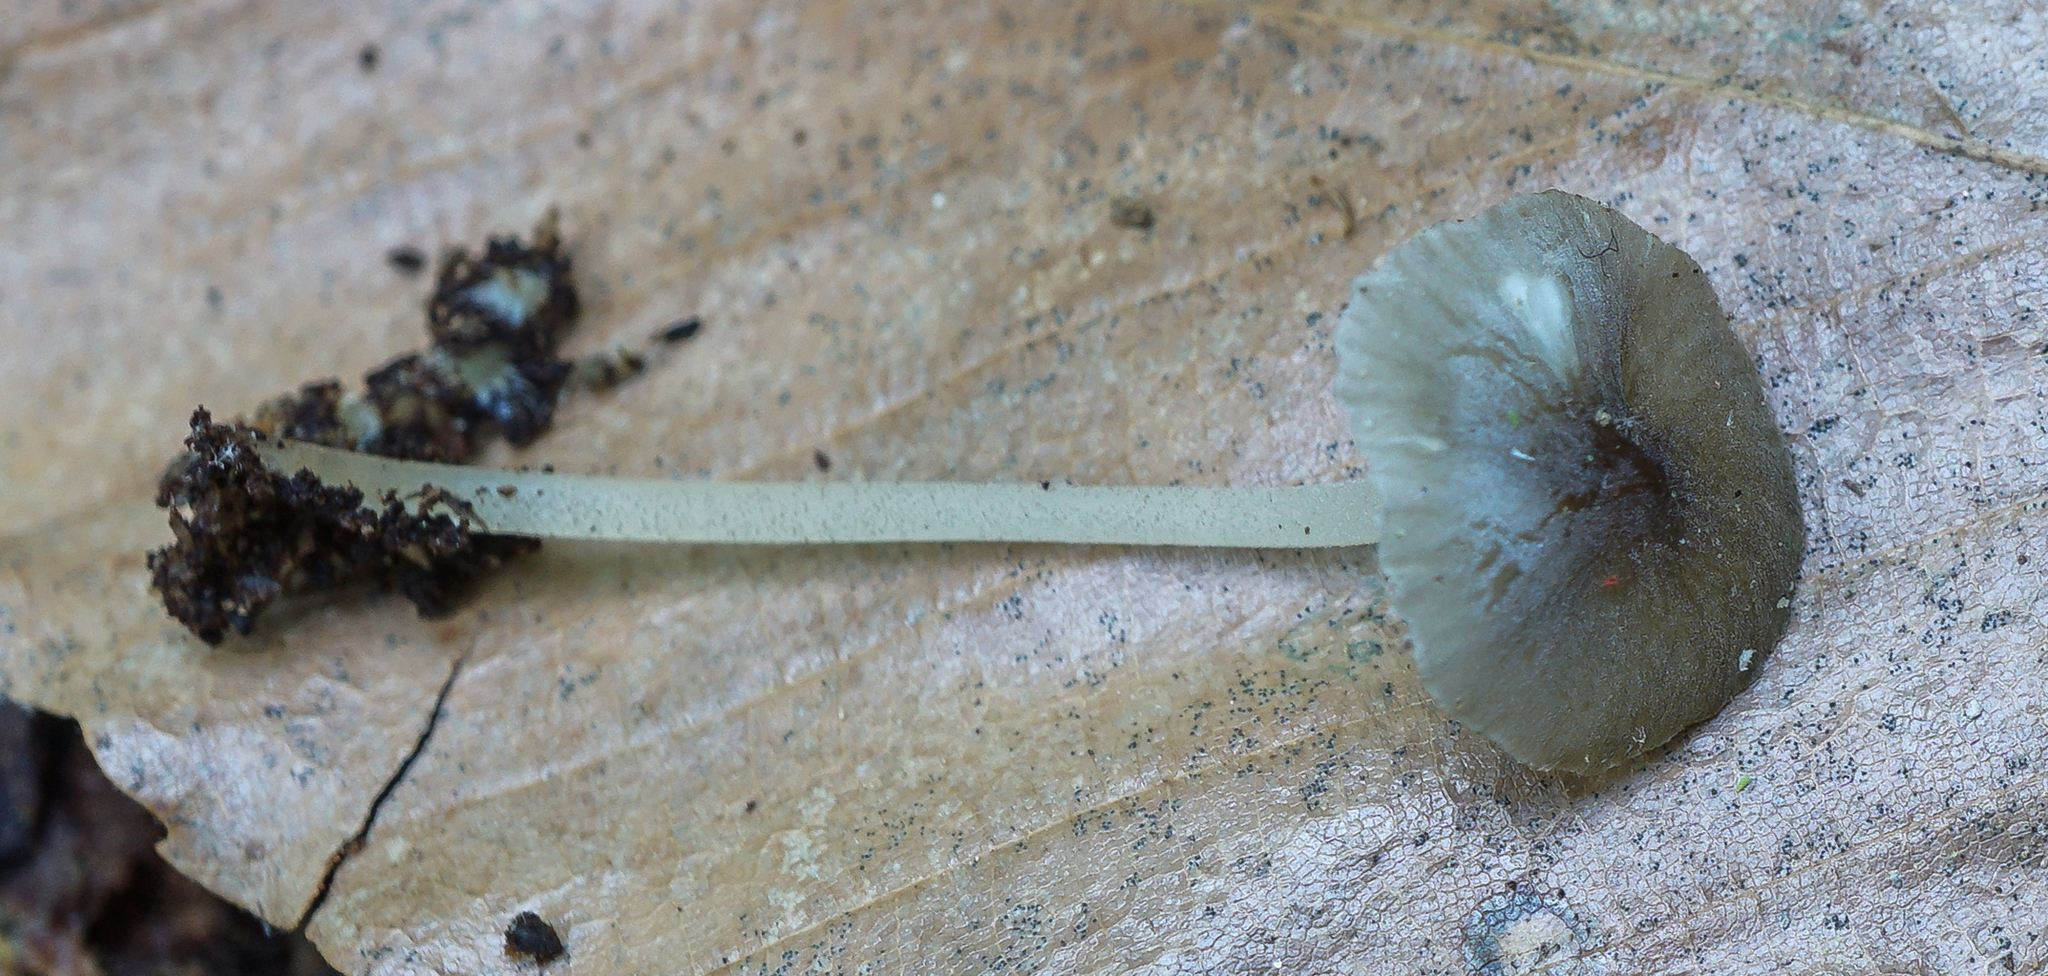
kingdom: Fungi
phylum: Basidiomycota
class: Agaricomycetes
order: Agaricales
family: Porotheleaceae
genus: Pseudohydropus
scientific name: Pseudohydropus floccipes
